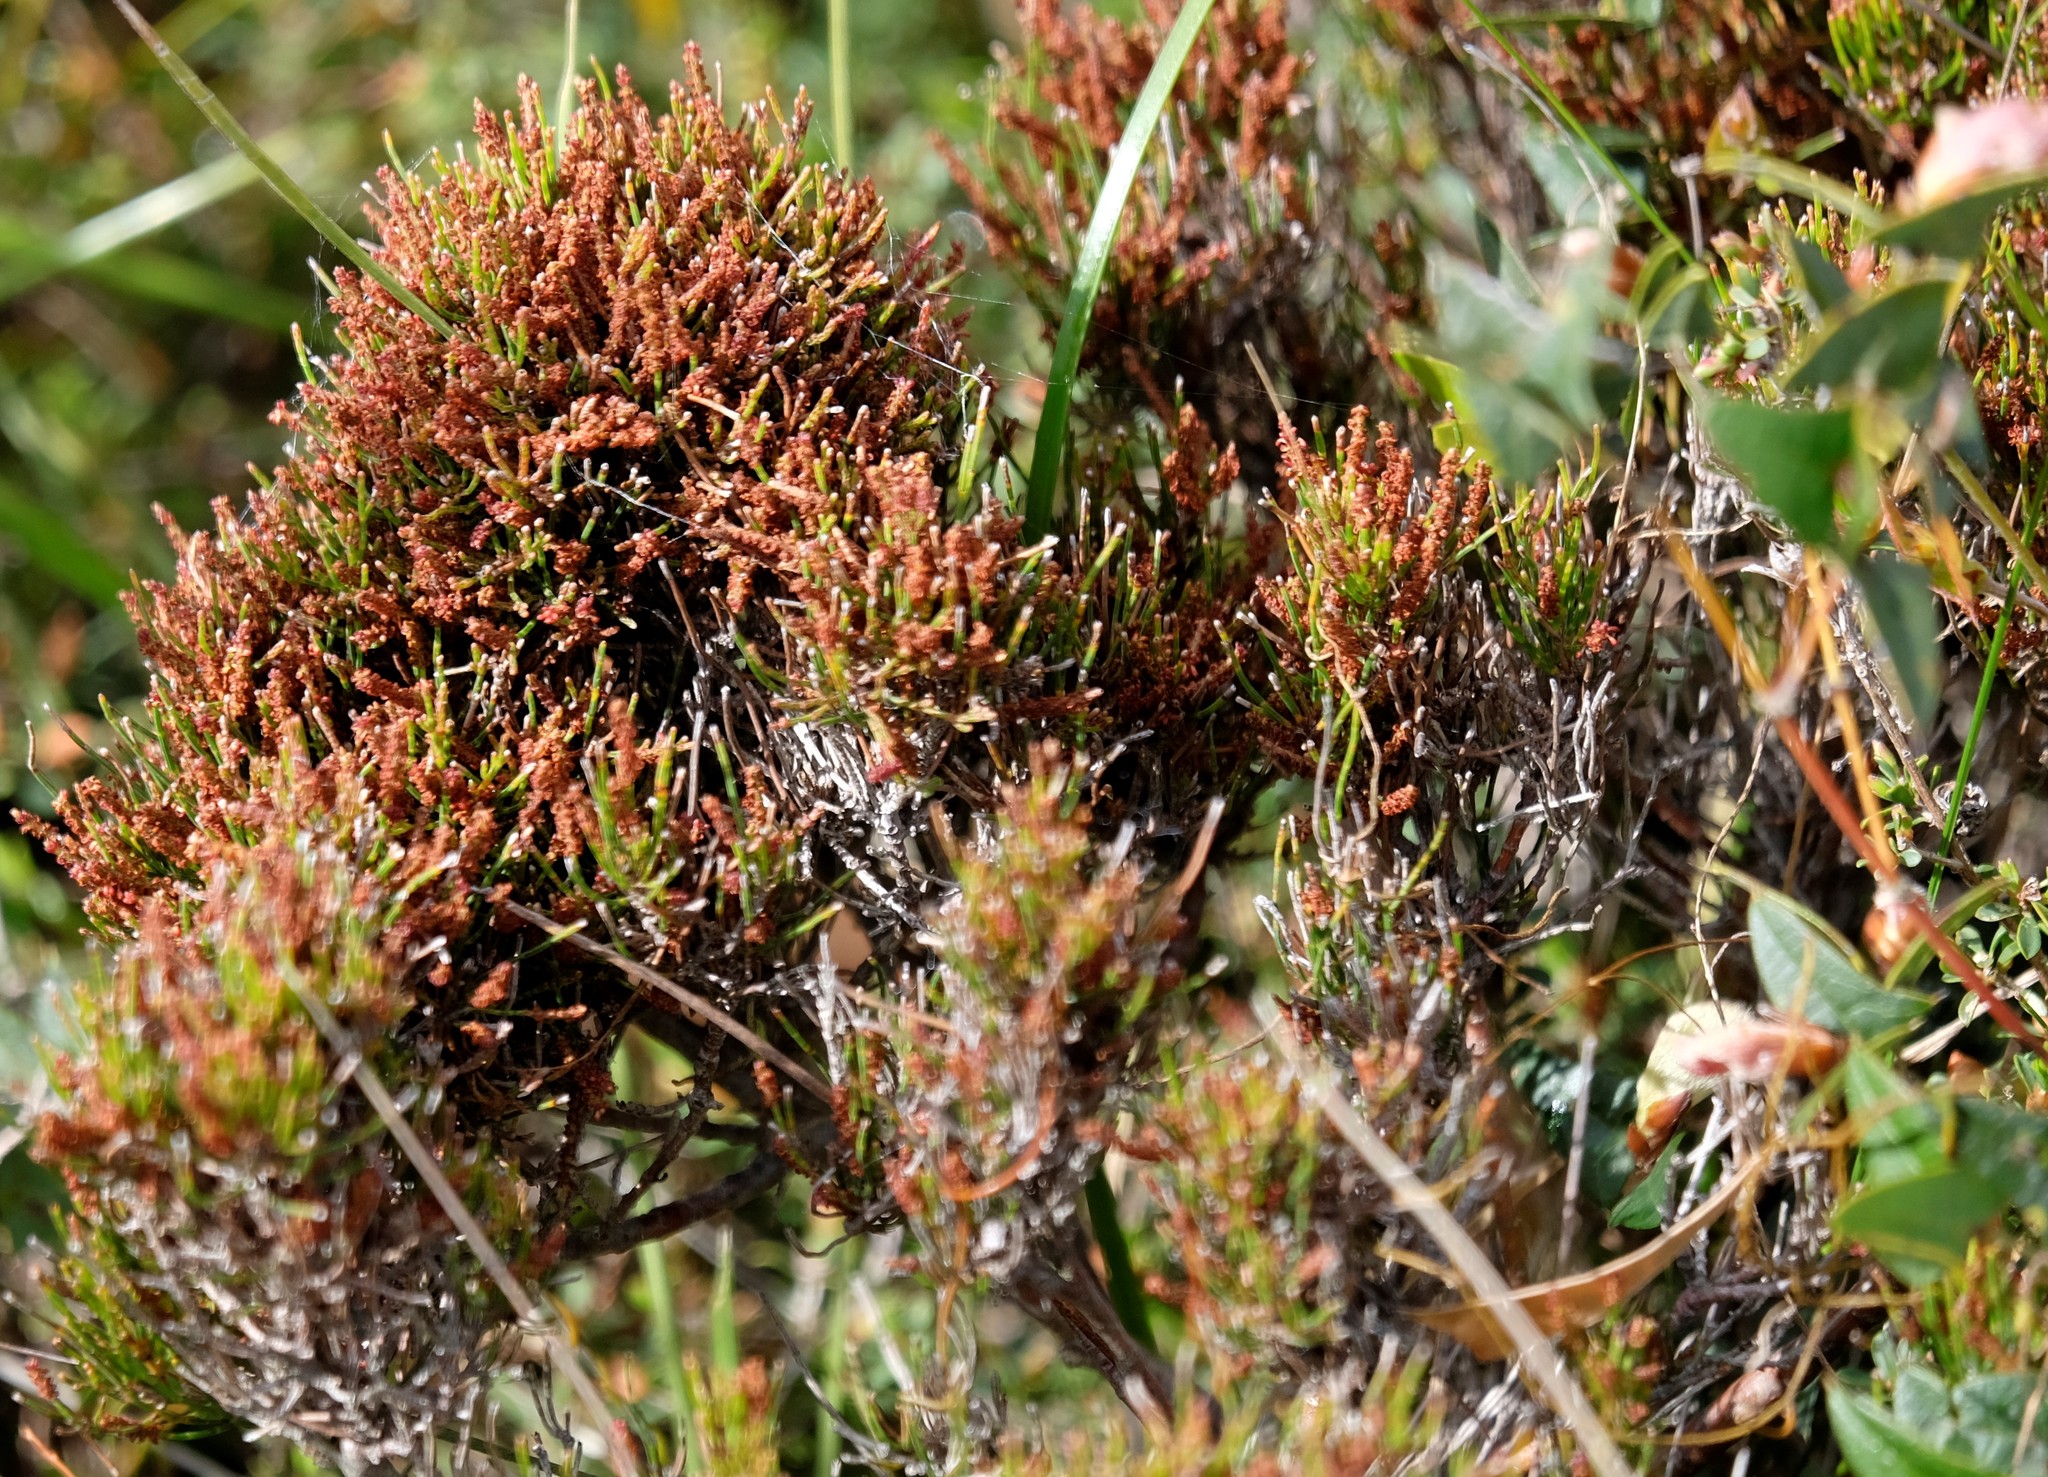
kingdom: Plantae
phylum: Tracheophyta
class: Magnoliopsida
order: Fagales
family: Casuarinaceae
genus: Allocasuarina
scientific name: Allocasuarina misera
